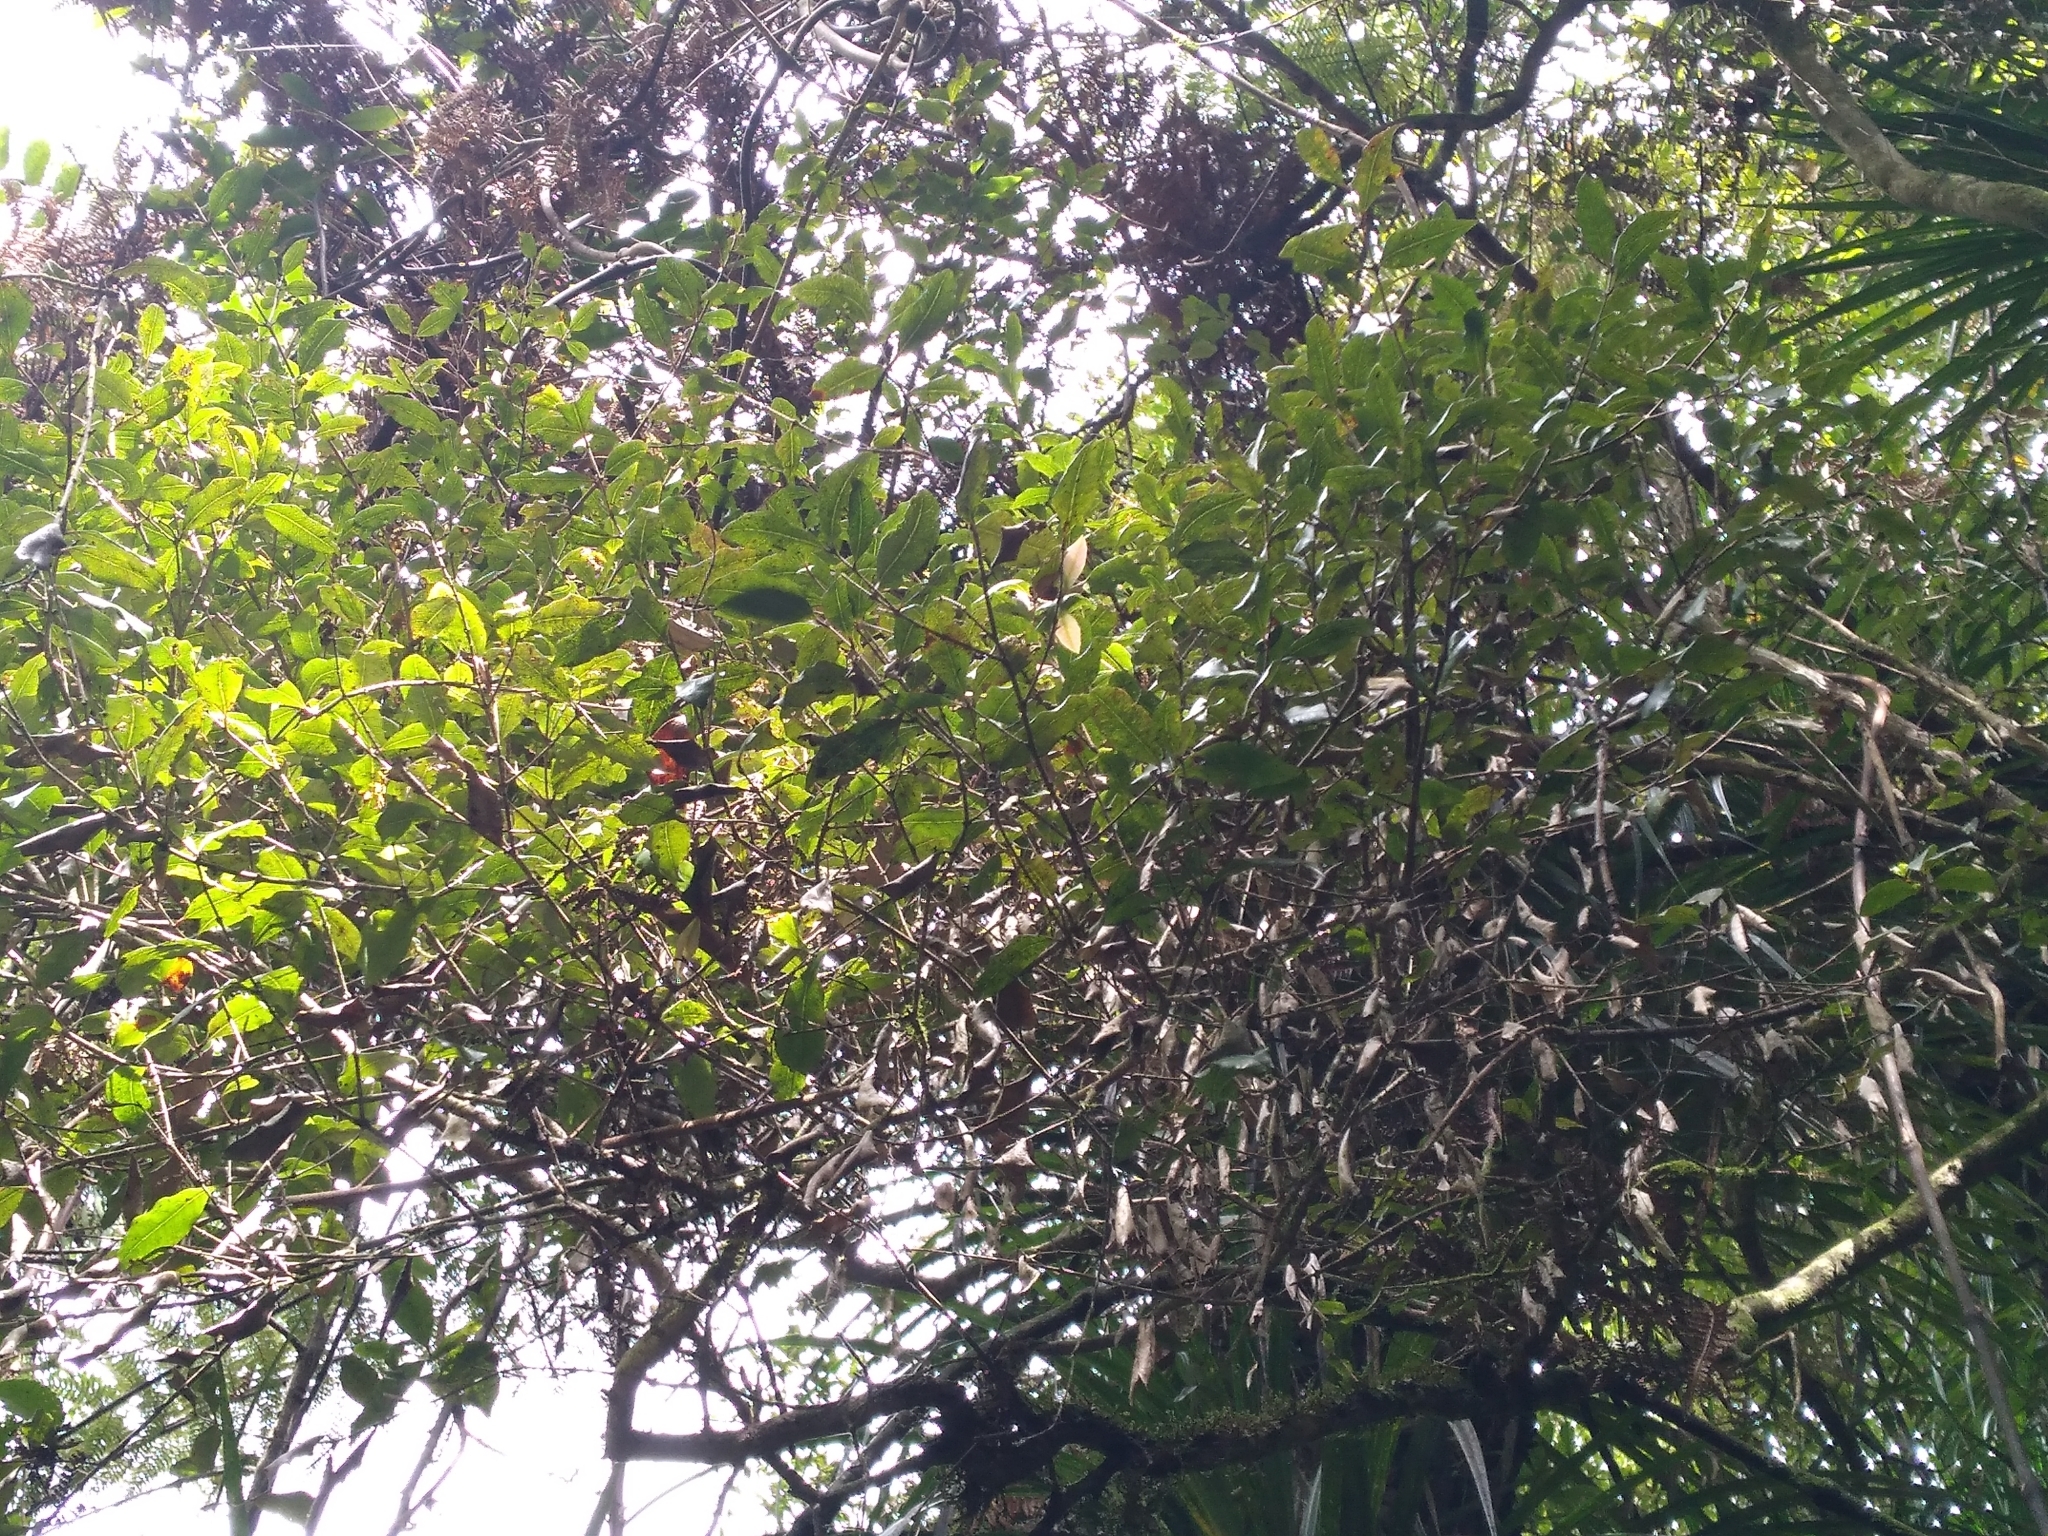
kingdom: Plantae
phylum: Tracheophyta
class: Magnoliopsida
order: Myrtales
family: Myrtaceae
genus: Syzygium
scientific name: Syzygium maire
